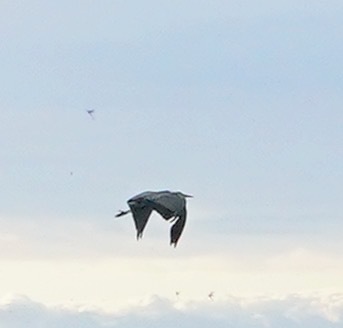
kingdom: Animalia
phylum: Chordata
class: Aves
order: Pelecaniformes
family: Ardeidae
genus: Ardea
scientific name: Ardea herodias
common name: Great blue heron
